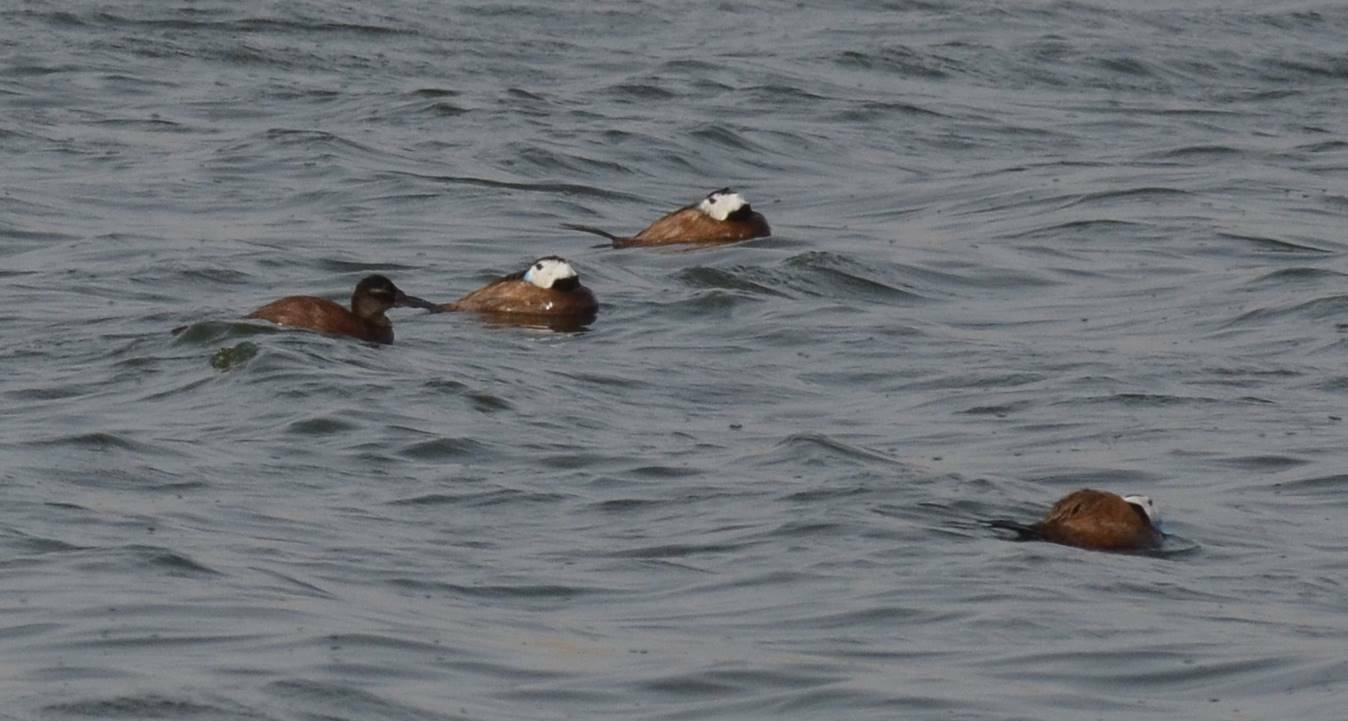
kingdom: Animalia
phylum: Chordata
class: Aves
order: Anseriformes
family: Anatidae
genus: Oxyura
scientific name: Oxyura leucocephala
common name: White-headed duck
